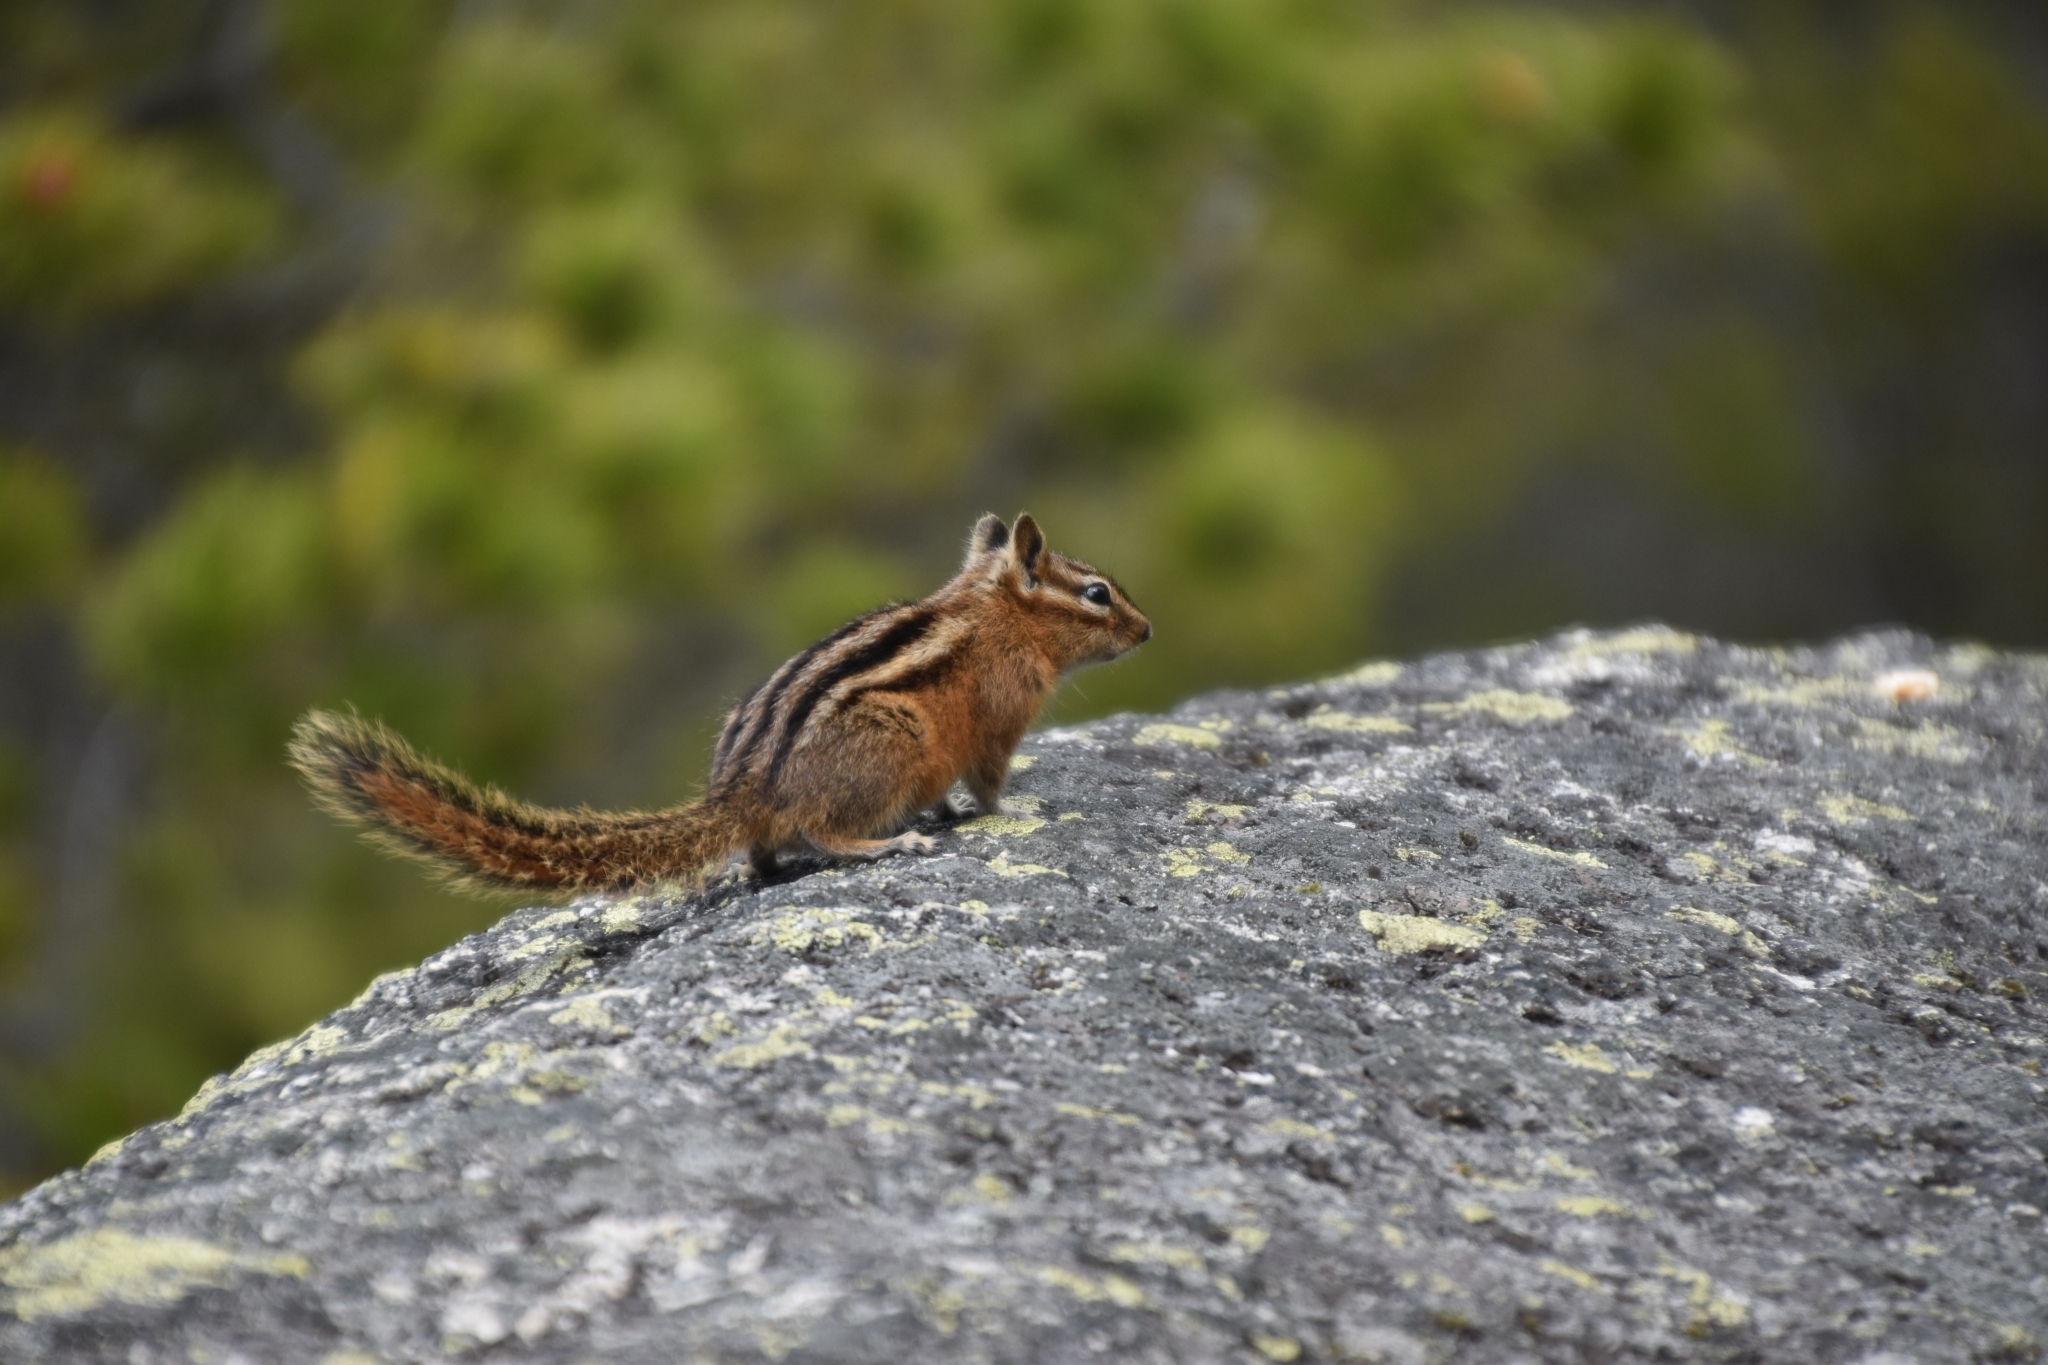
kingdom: Animalia
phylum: Chordata
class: Mammalia
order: Rodentia
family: Sciuridae
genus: Tamias
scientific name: Tamias amoenus
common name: Yellow-pine chipmunk
